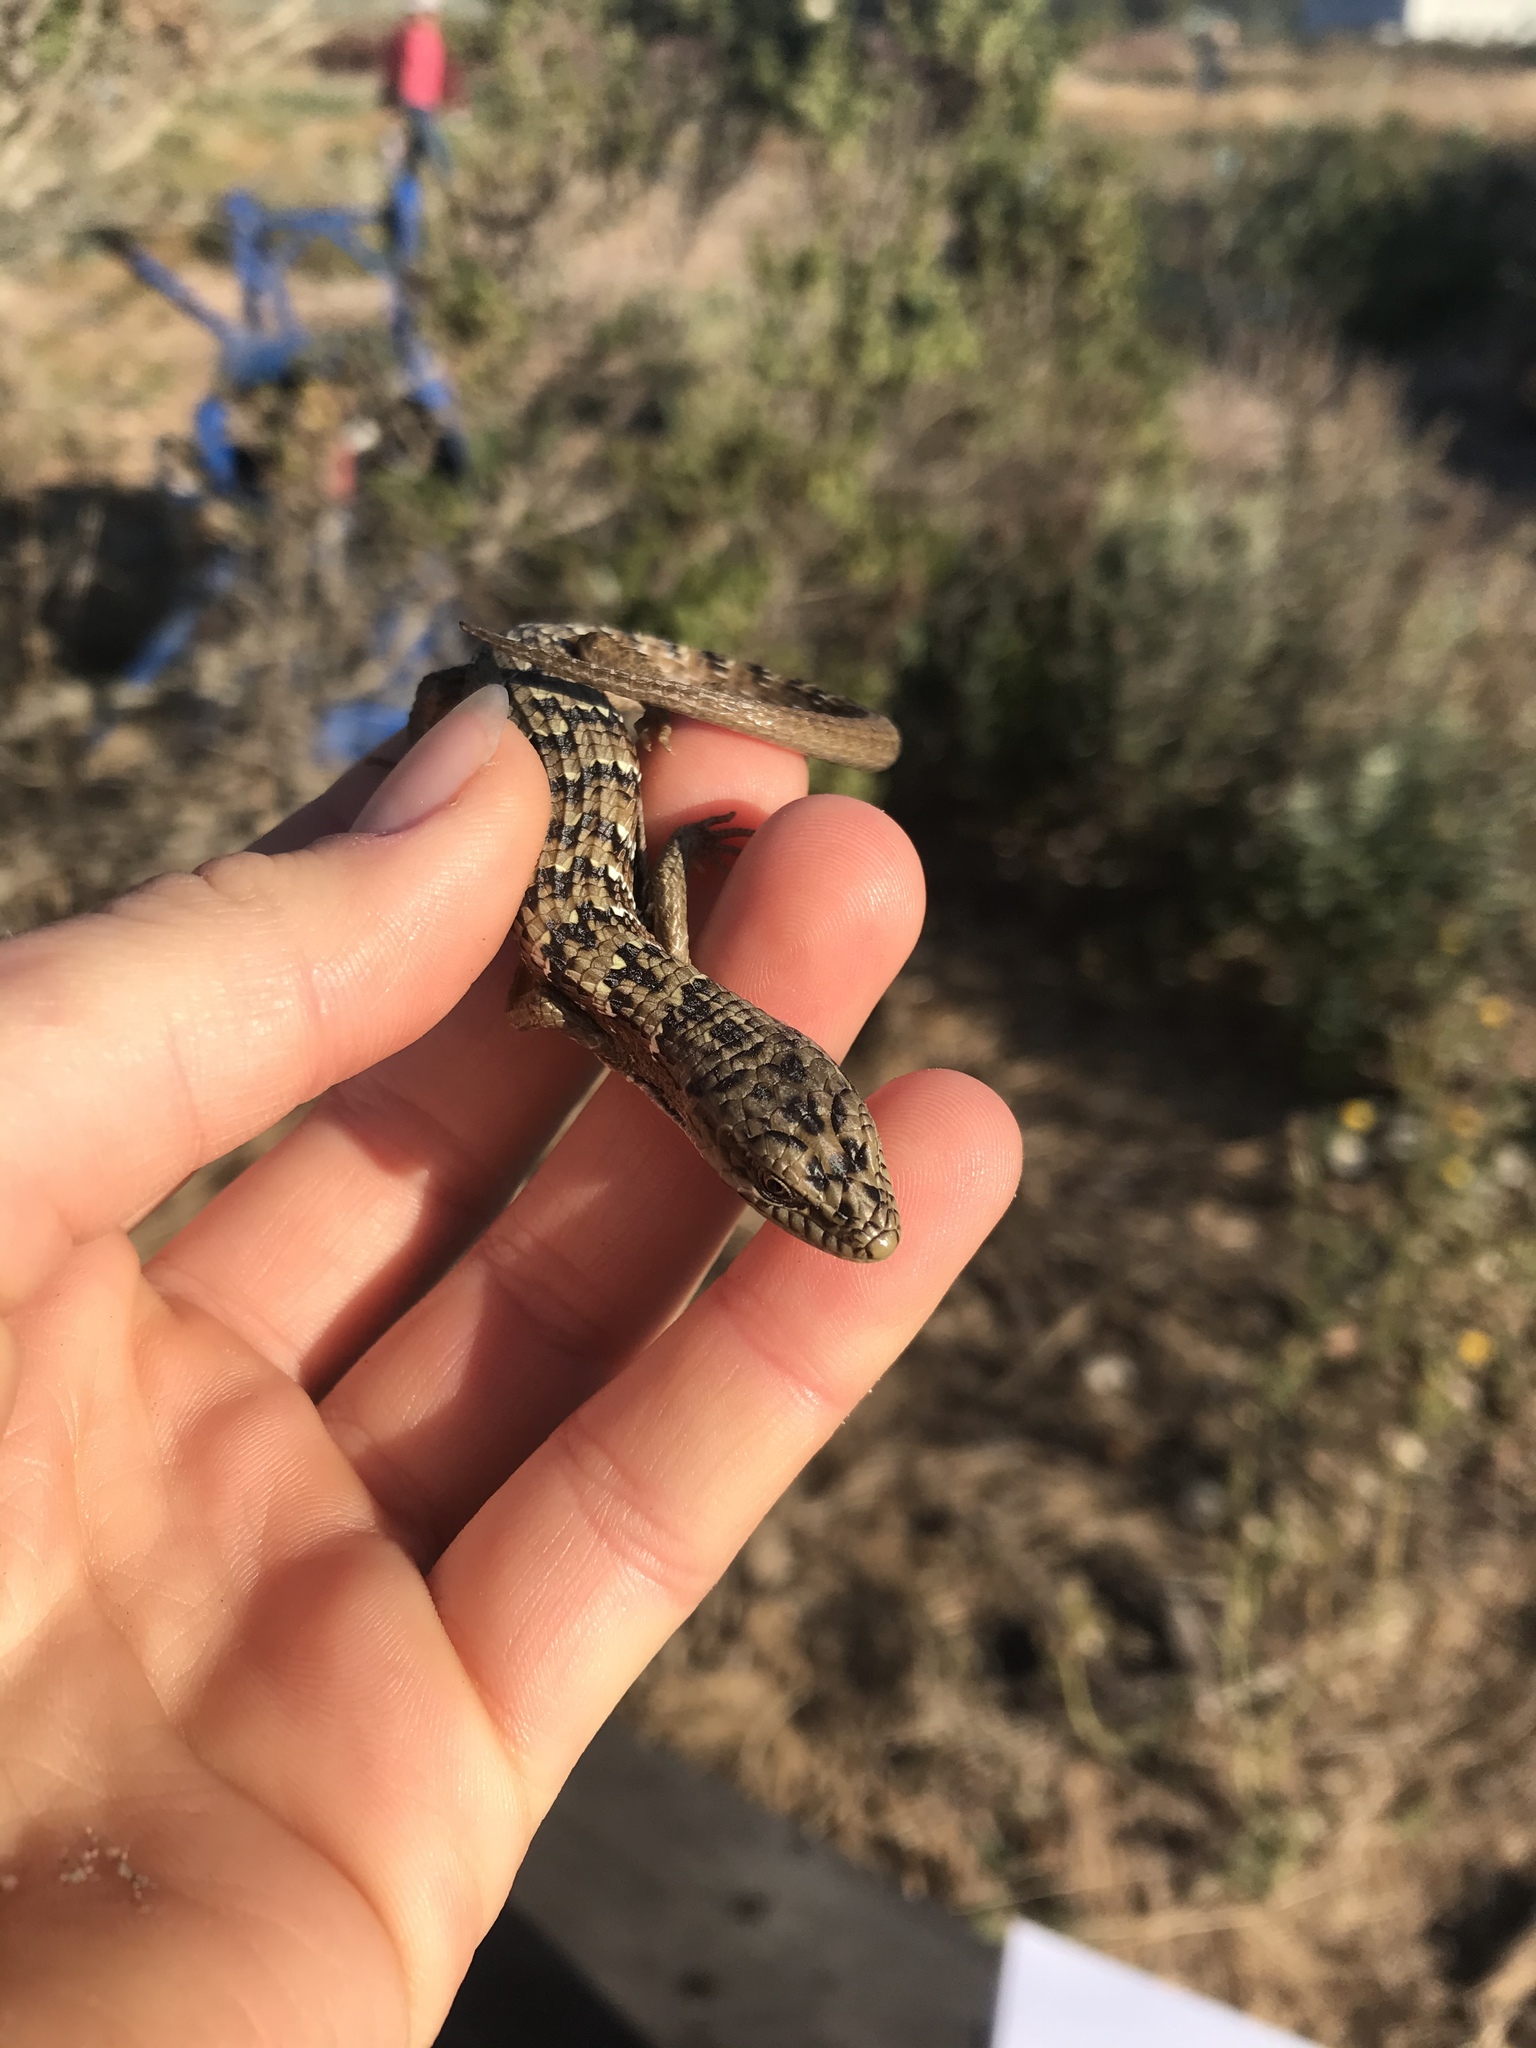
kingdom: Animalia
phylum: Chordata
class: Squamata
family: Anguidae
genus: Elgaria
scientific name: Elgaria multicarinata
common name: Southern alligator lizard
